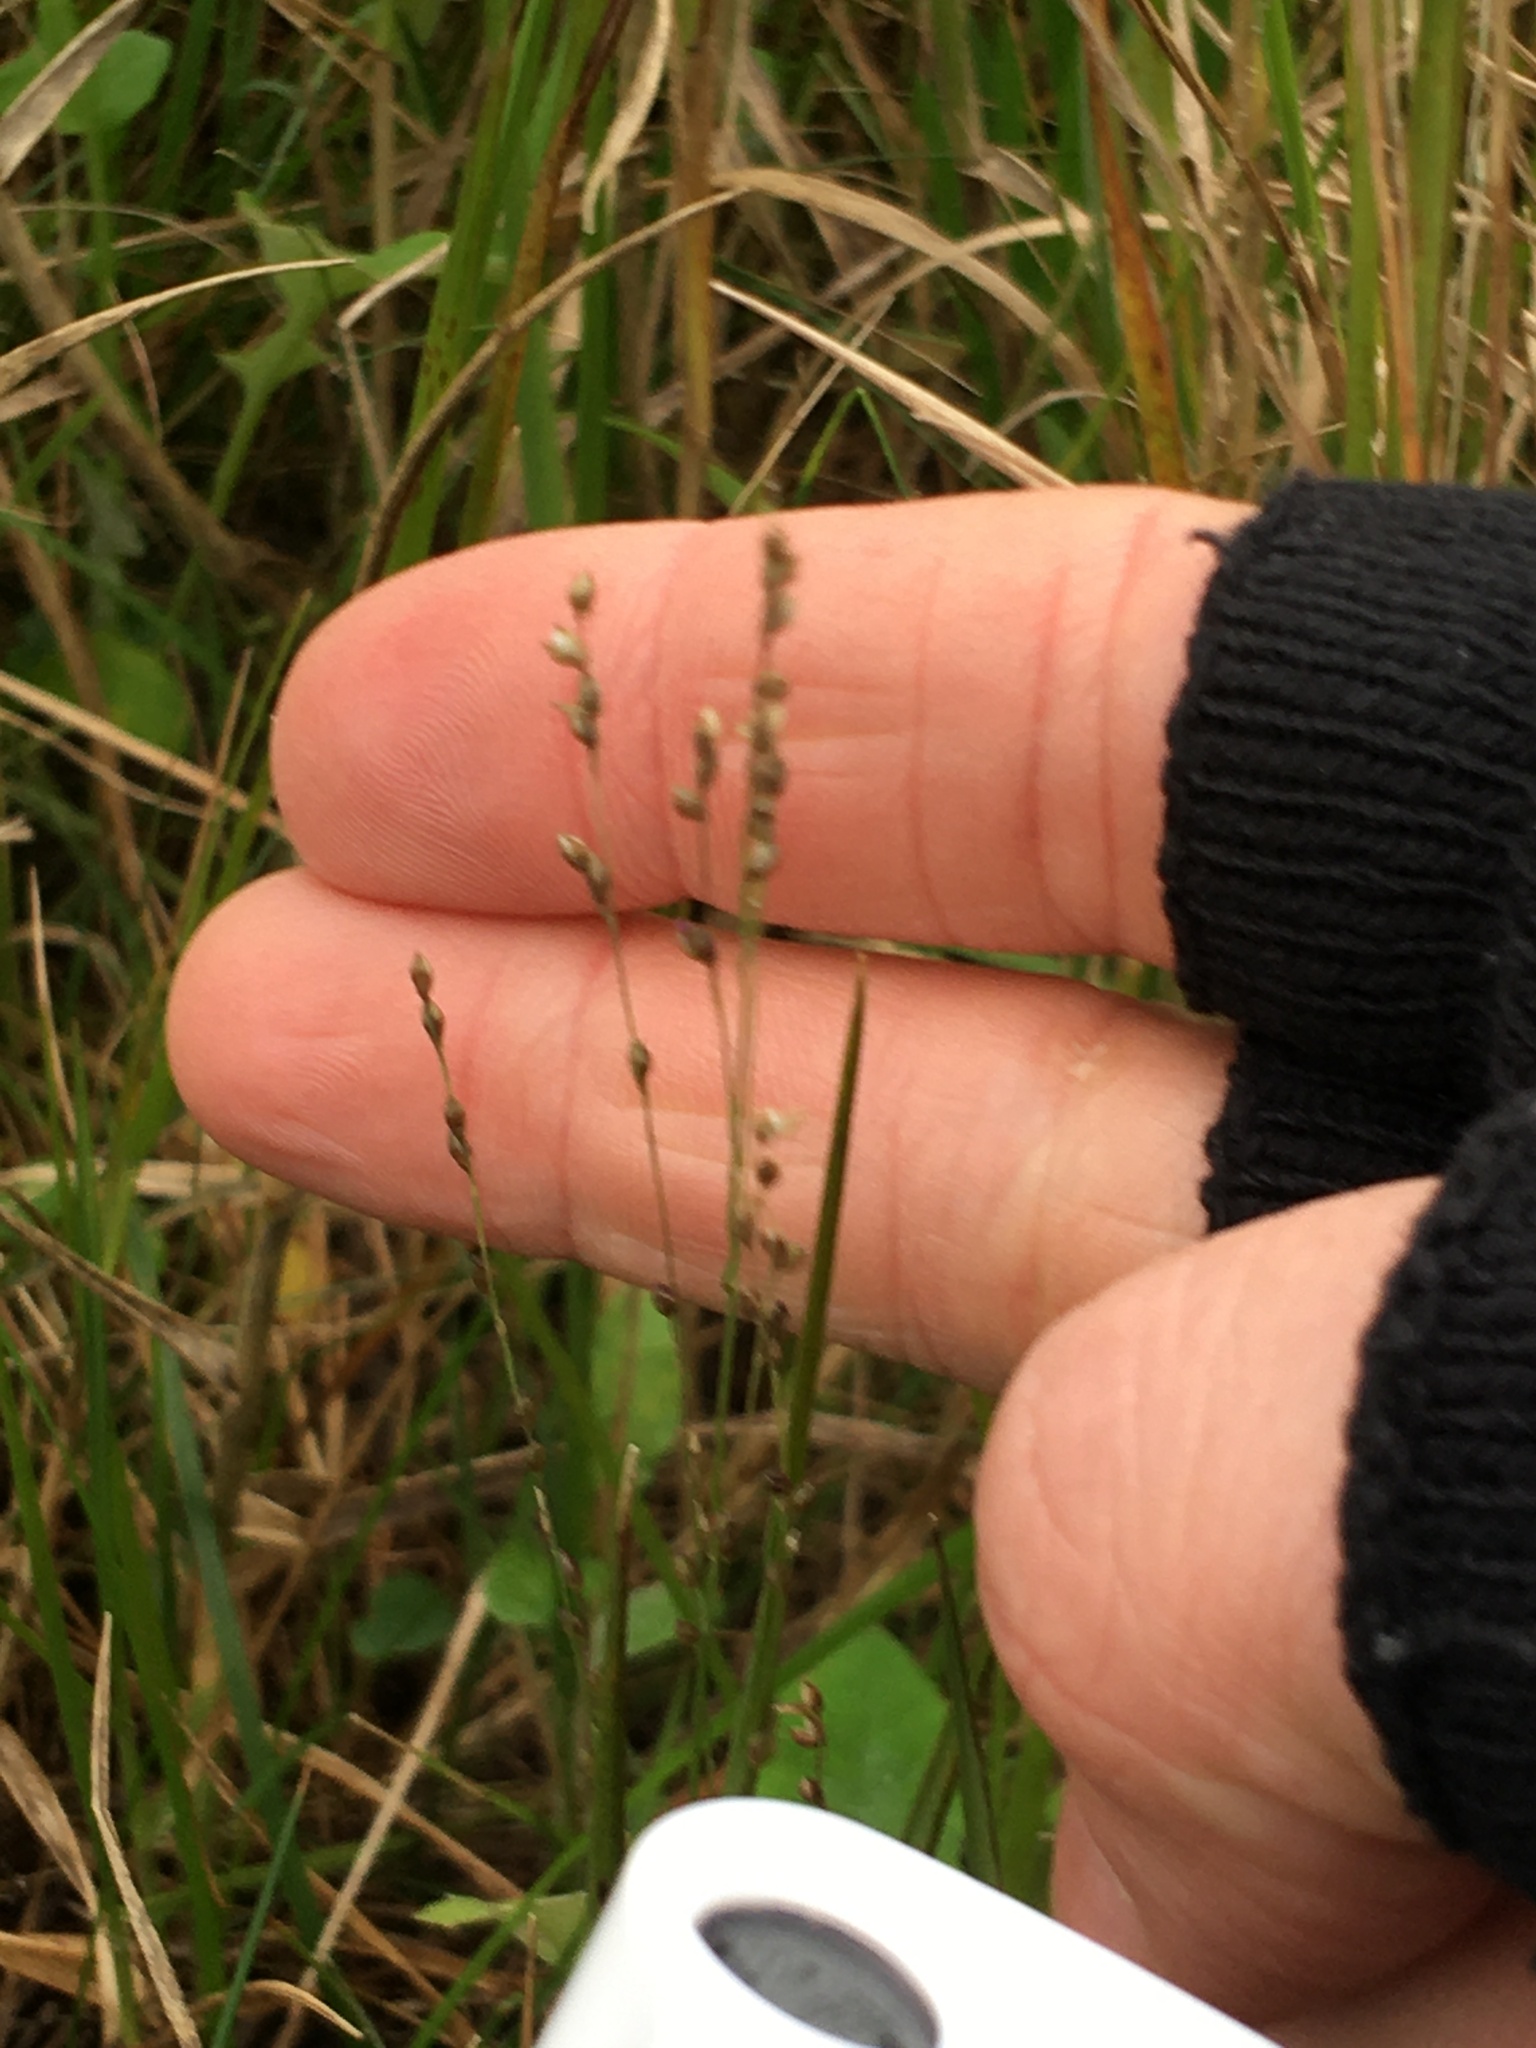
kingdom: Plantae
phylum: Tracheophyta
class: Liliopsida
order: Poales
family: Poaceae
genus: Panicum
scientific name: Panicum repens
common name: Torpedo grass
